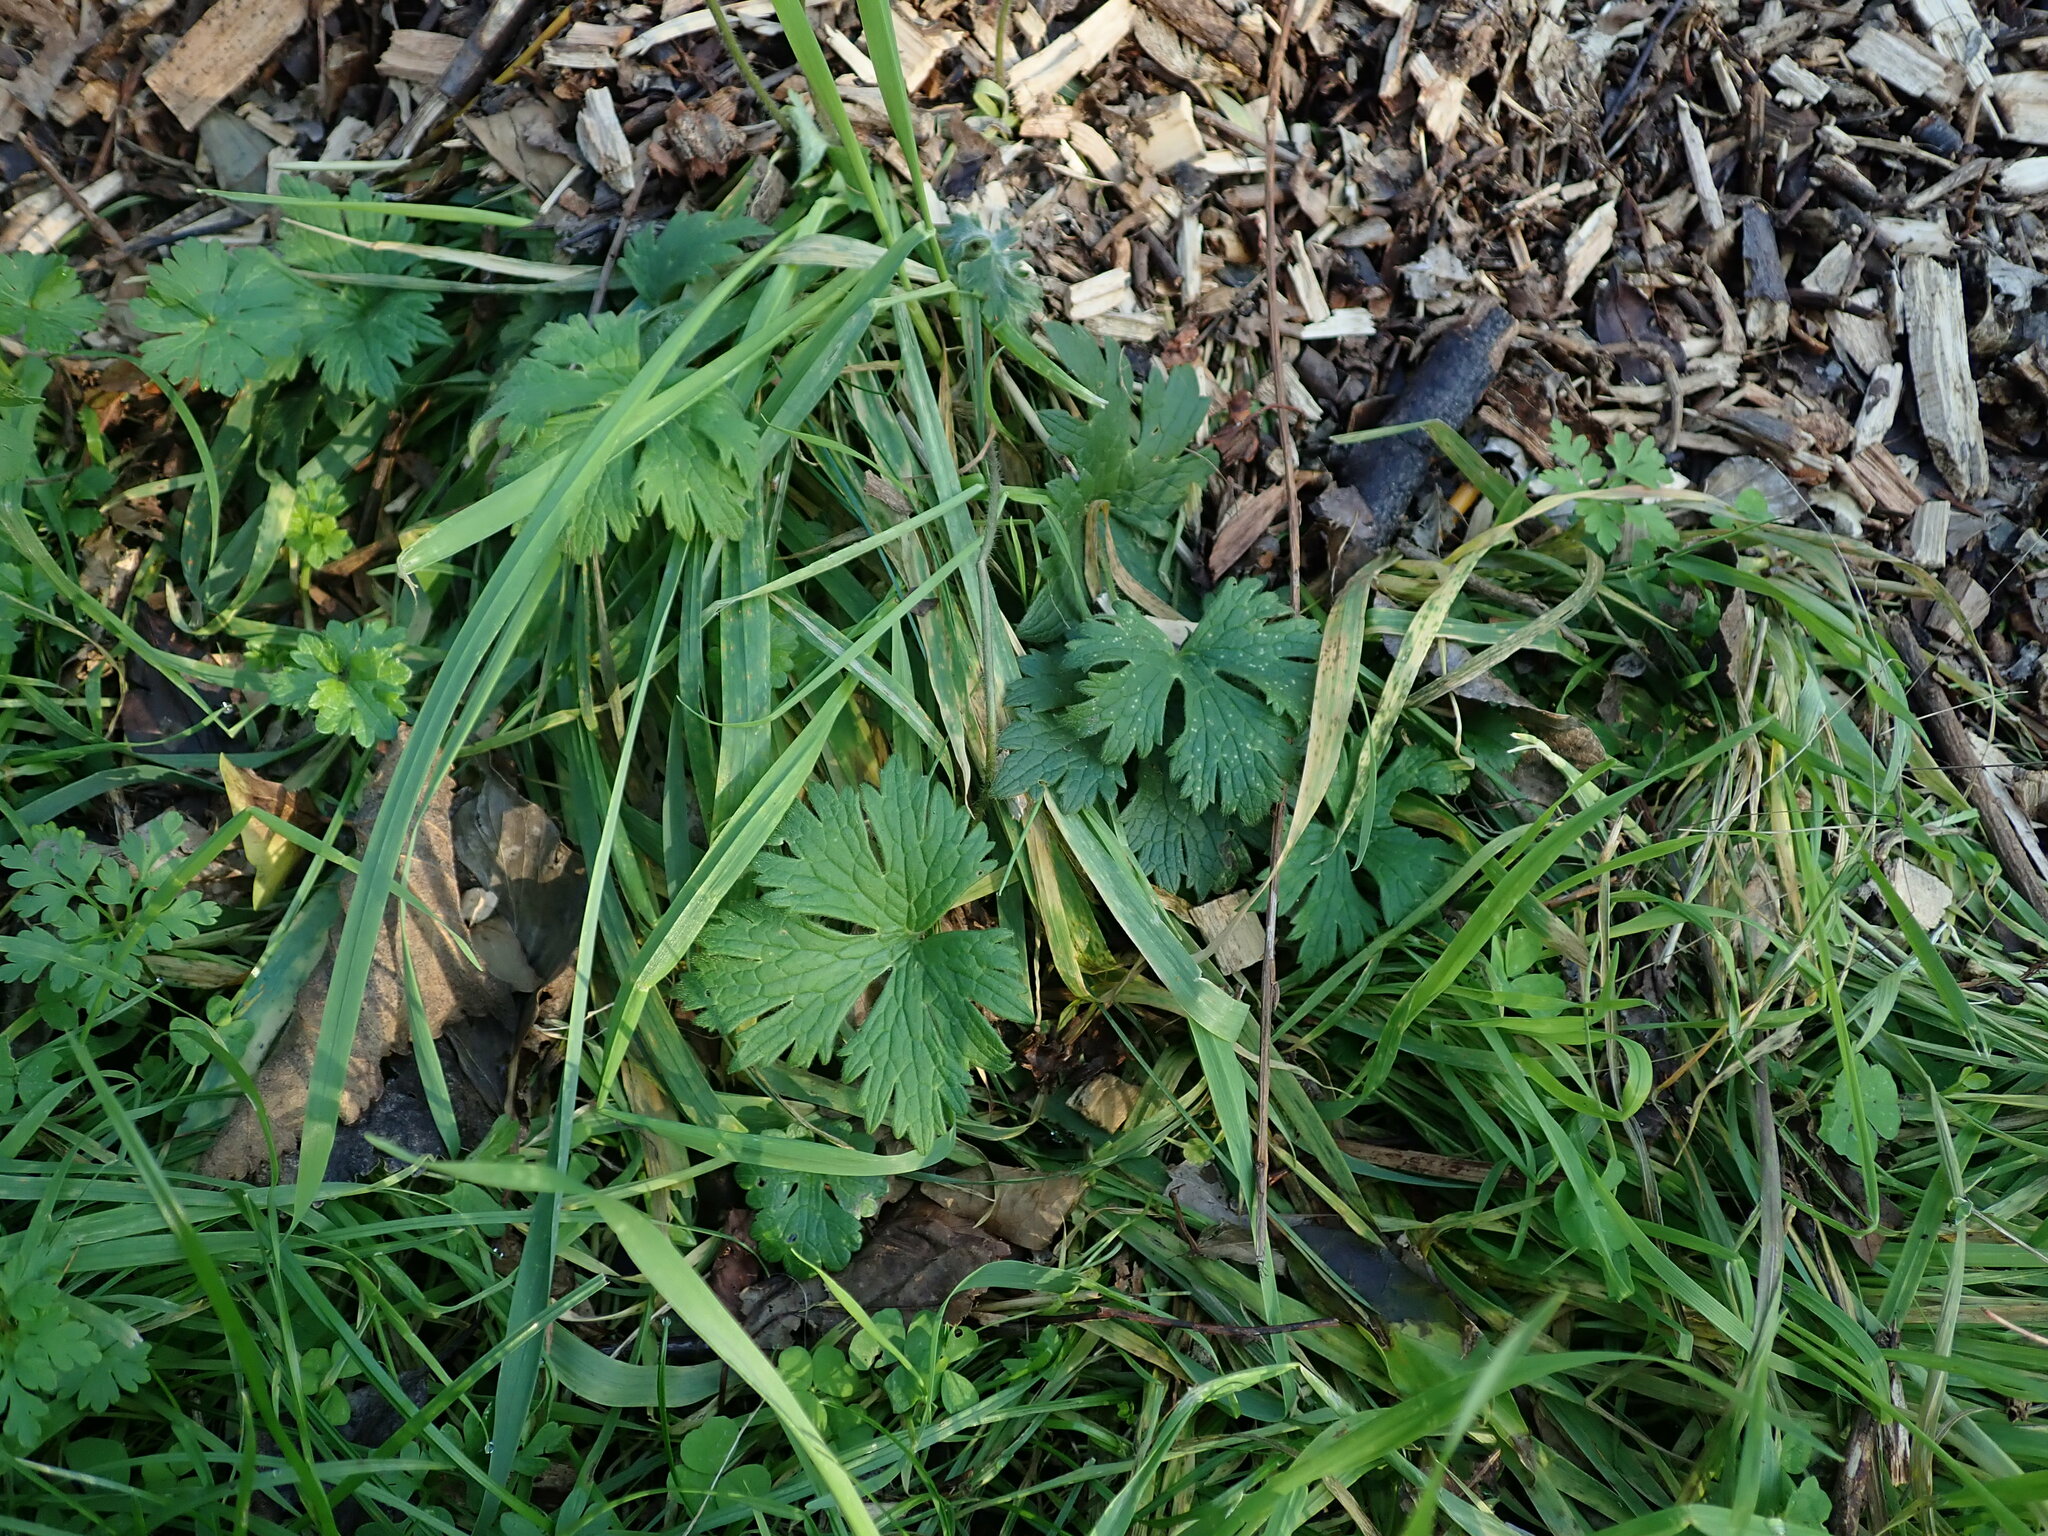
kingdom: Plantae
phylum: Tracheophyta
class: Magnoliopsida
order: Ranunculales
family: Ranunculaceae
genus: Ranunculus
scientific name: Ranunculus acris
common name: Meadow buttercup
